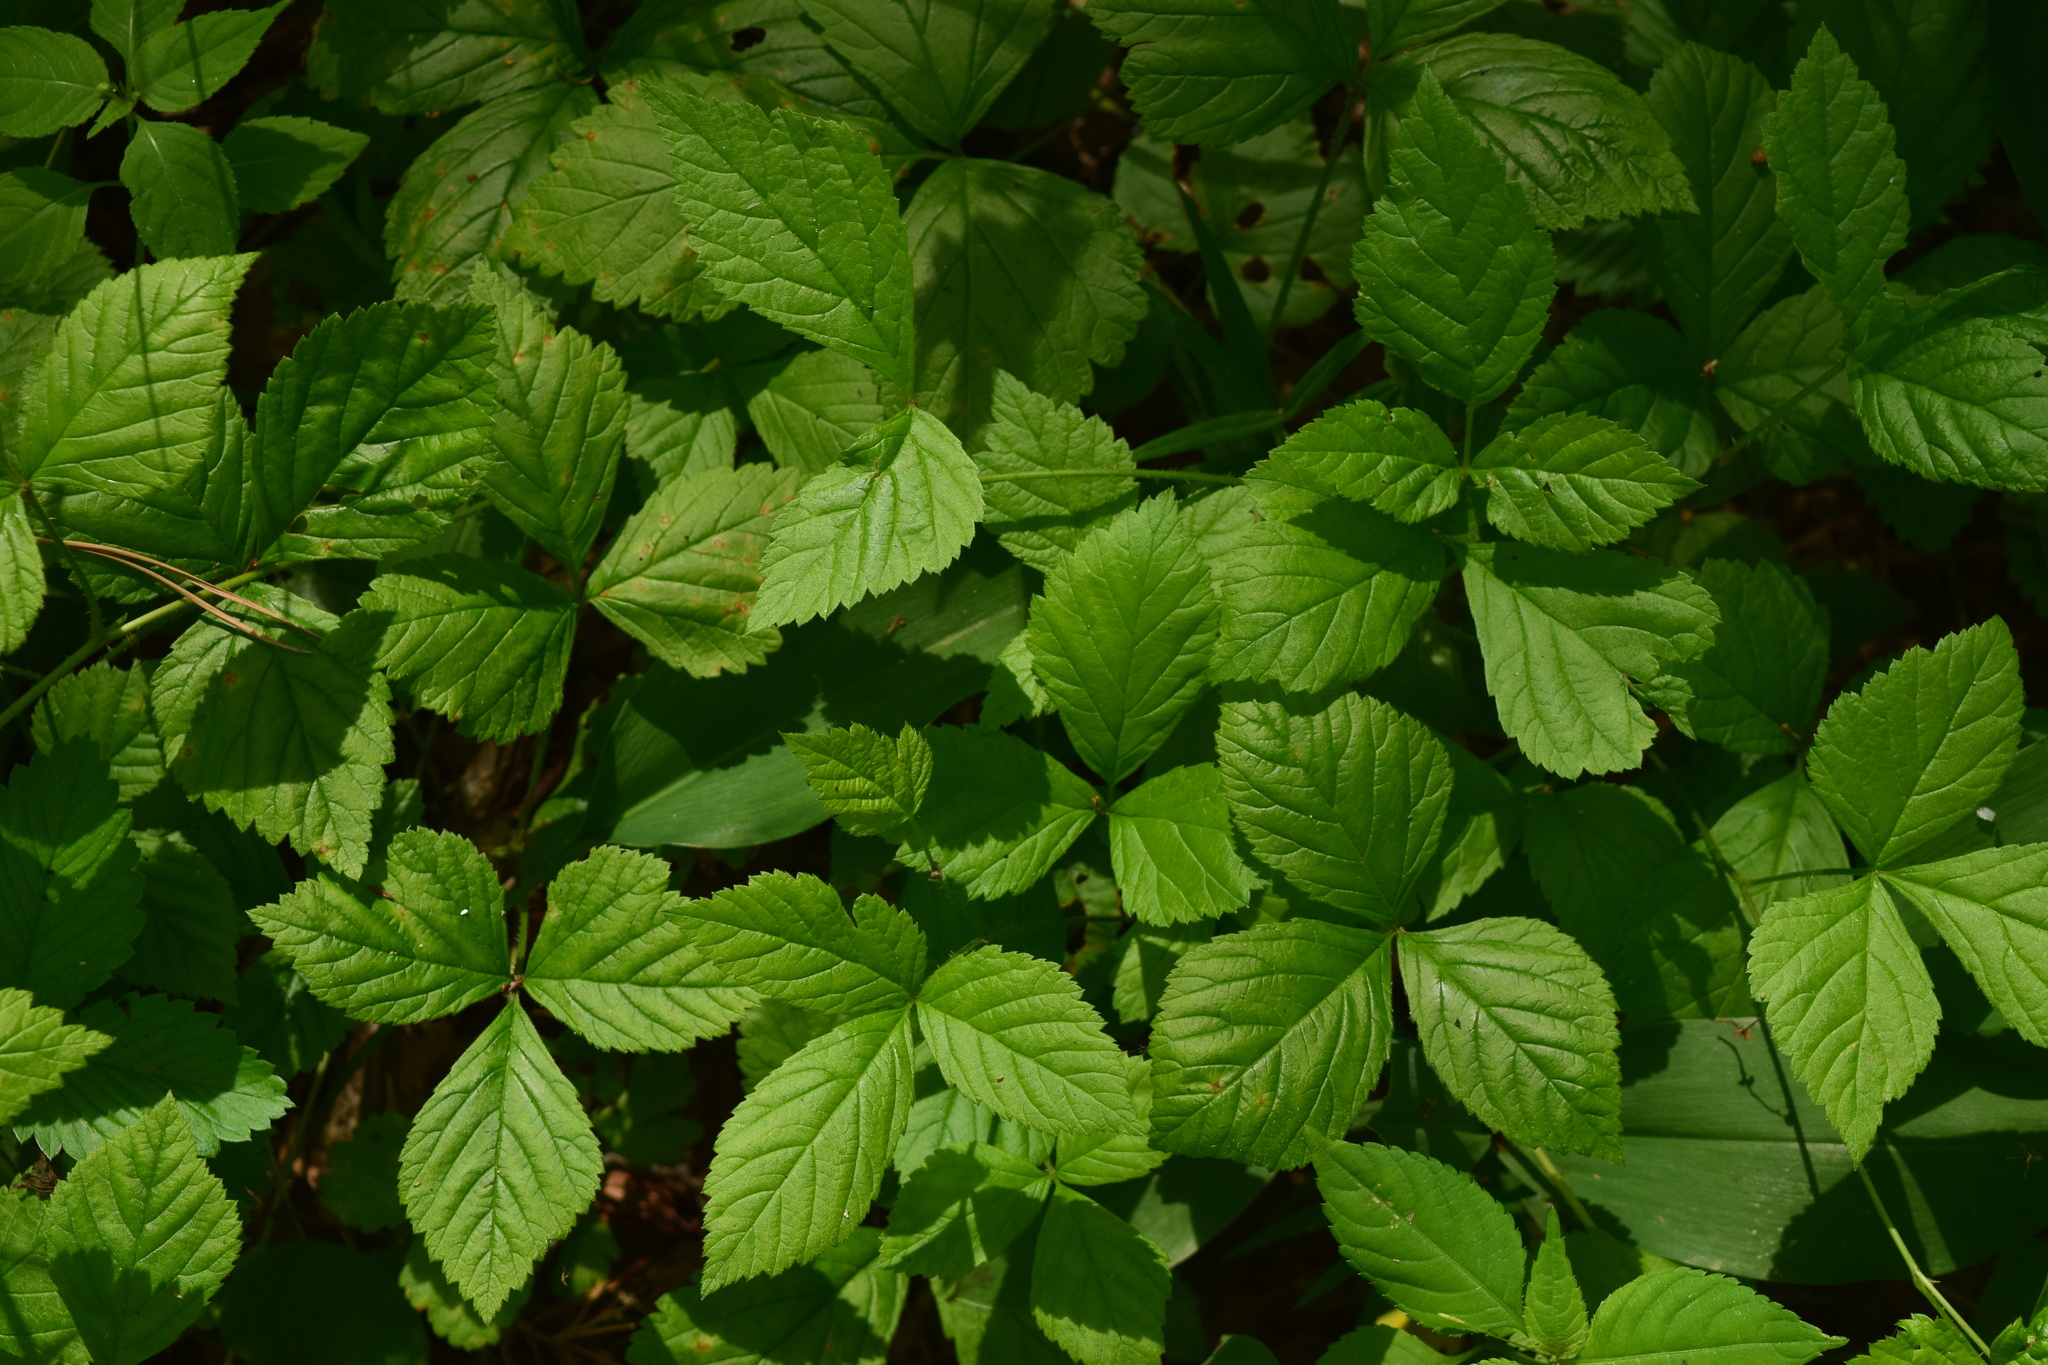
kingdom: Plantae
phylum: Tracheophyta
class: Magnoliopsida
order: Rosales
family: Rosaceae
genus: Rubus
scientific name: Rubus saxatilis
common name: Stone bramble
